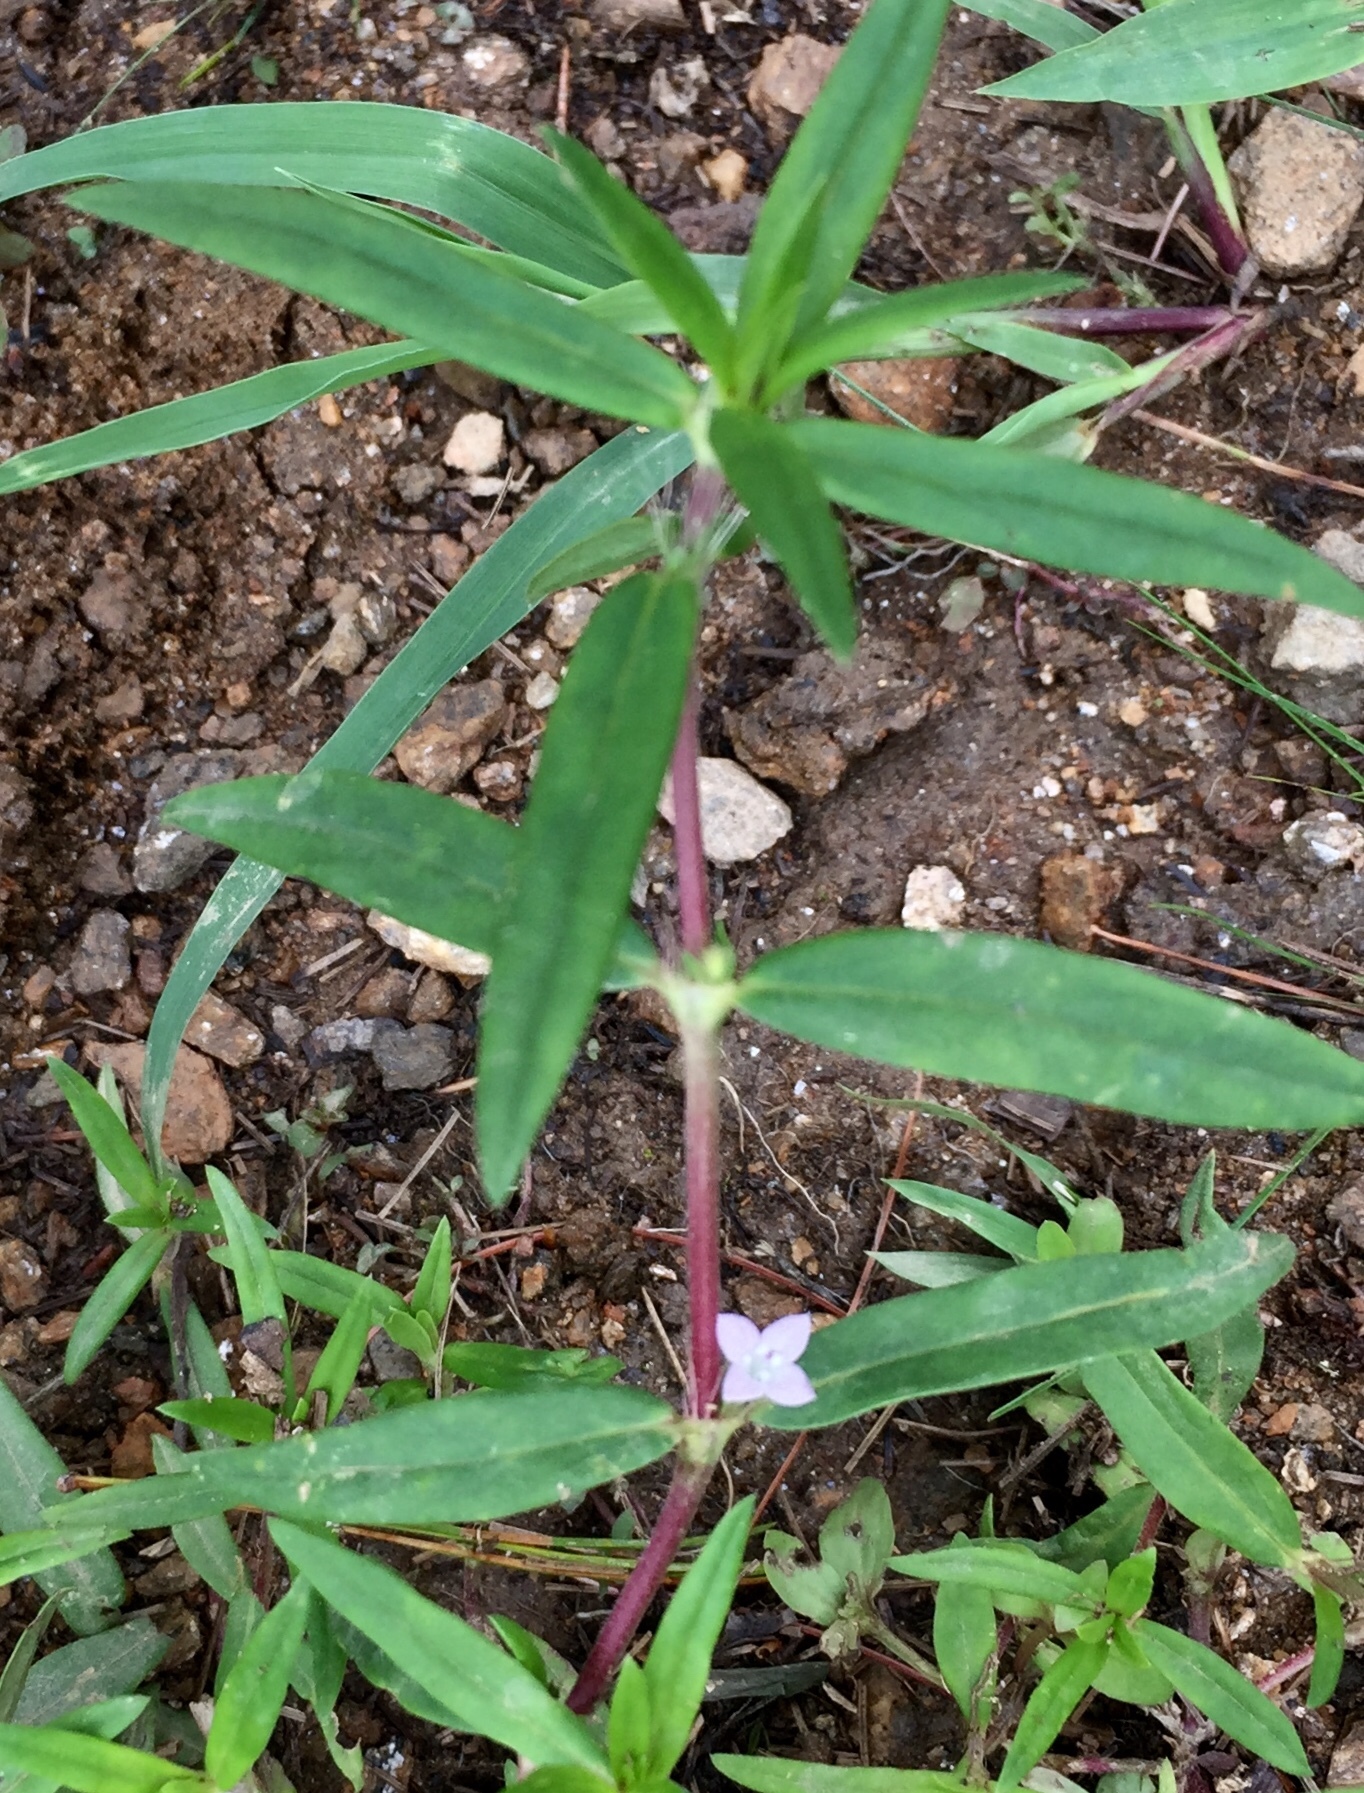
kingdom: Plantae
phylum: Tracheophyta
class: Magnoliopsida
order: Gentianales
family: Rubiaceae
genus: Hexasepalum
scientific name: Hexasepalum teres
